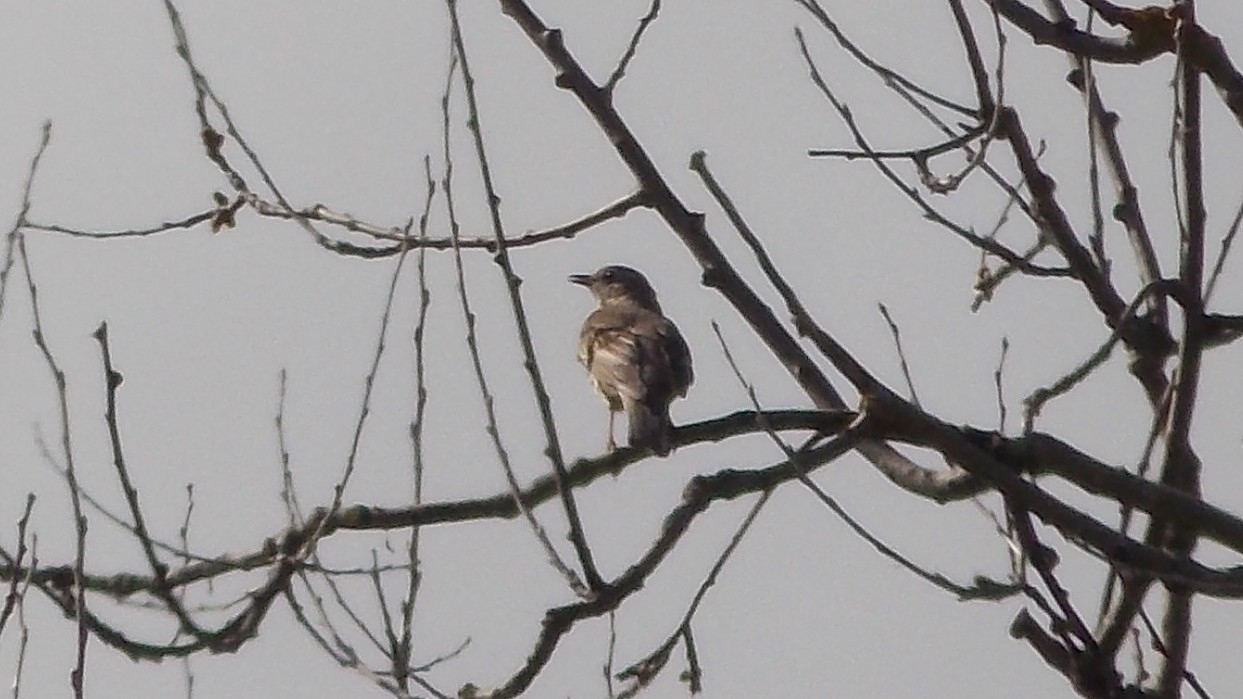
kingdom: Animalia
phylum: Chordata
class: Aves
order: Passeriformes
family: Turdidae
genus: Turdus
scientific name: Turdus viscivorus
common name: Mistle thrush
